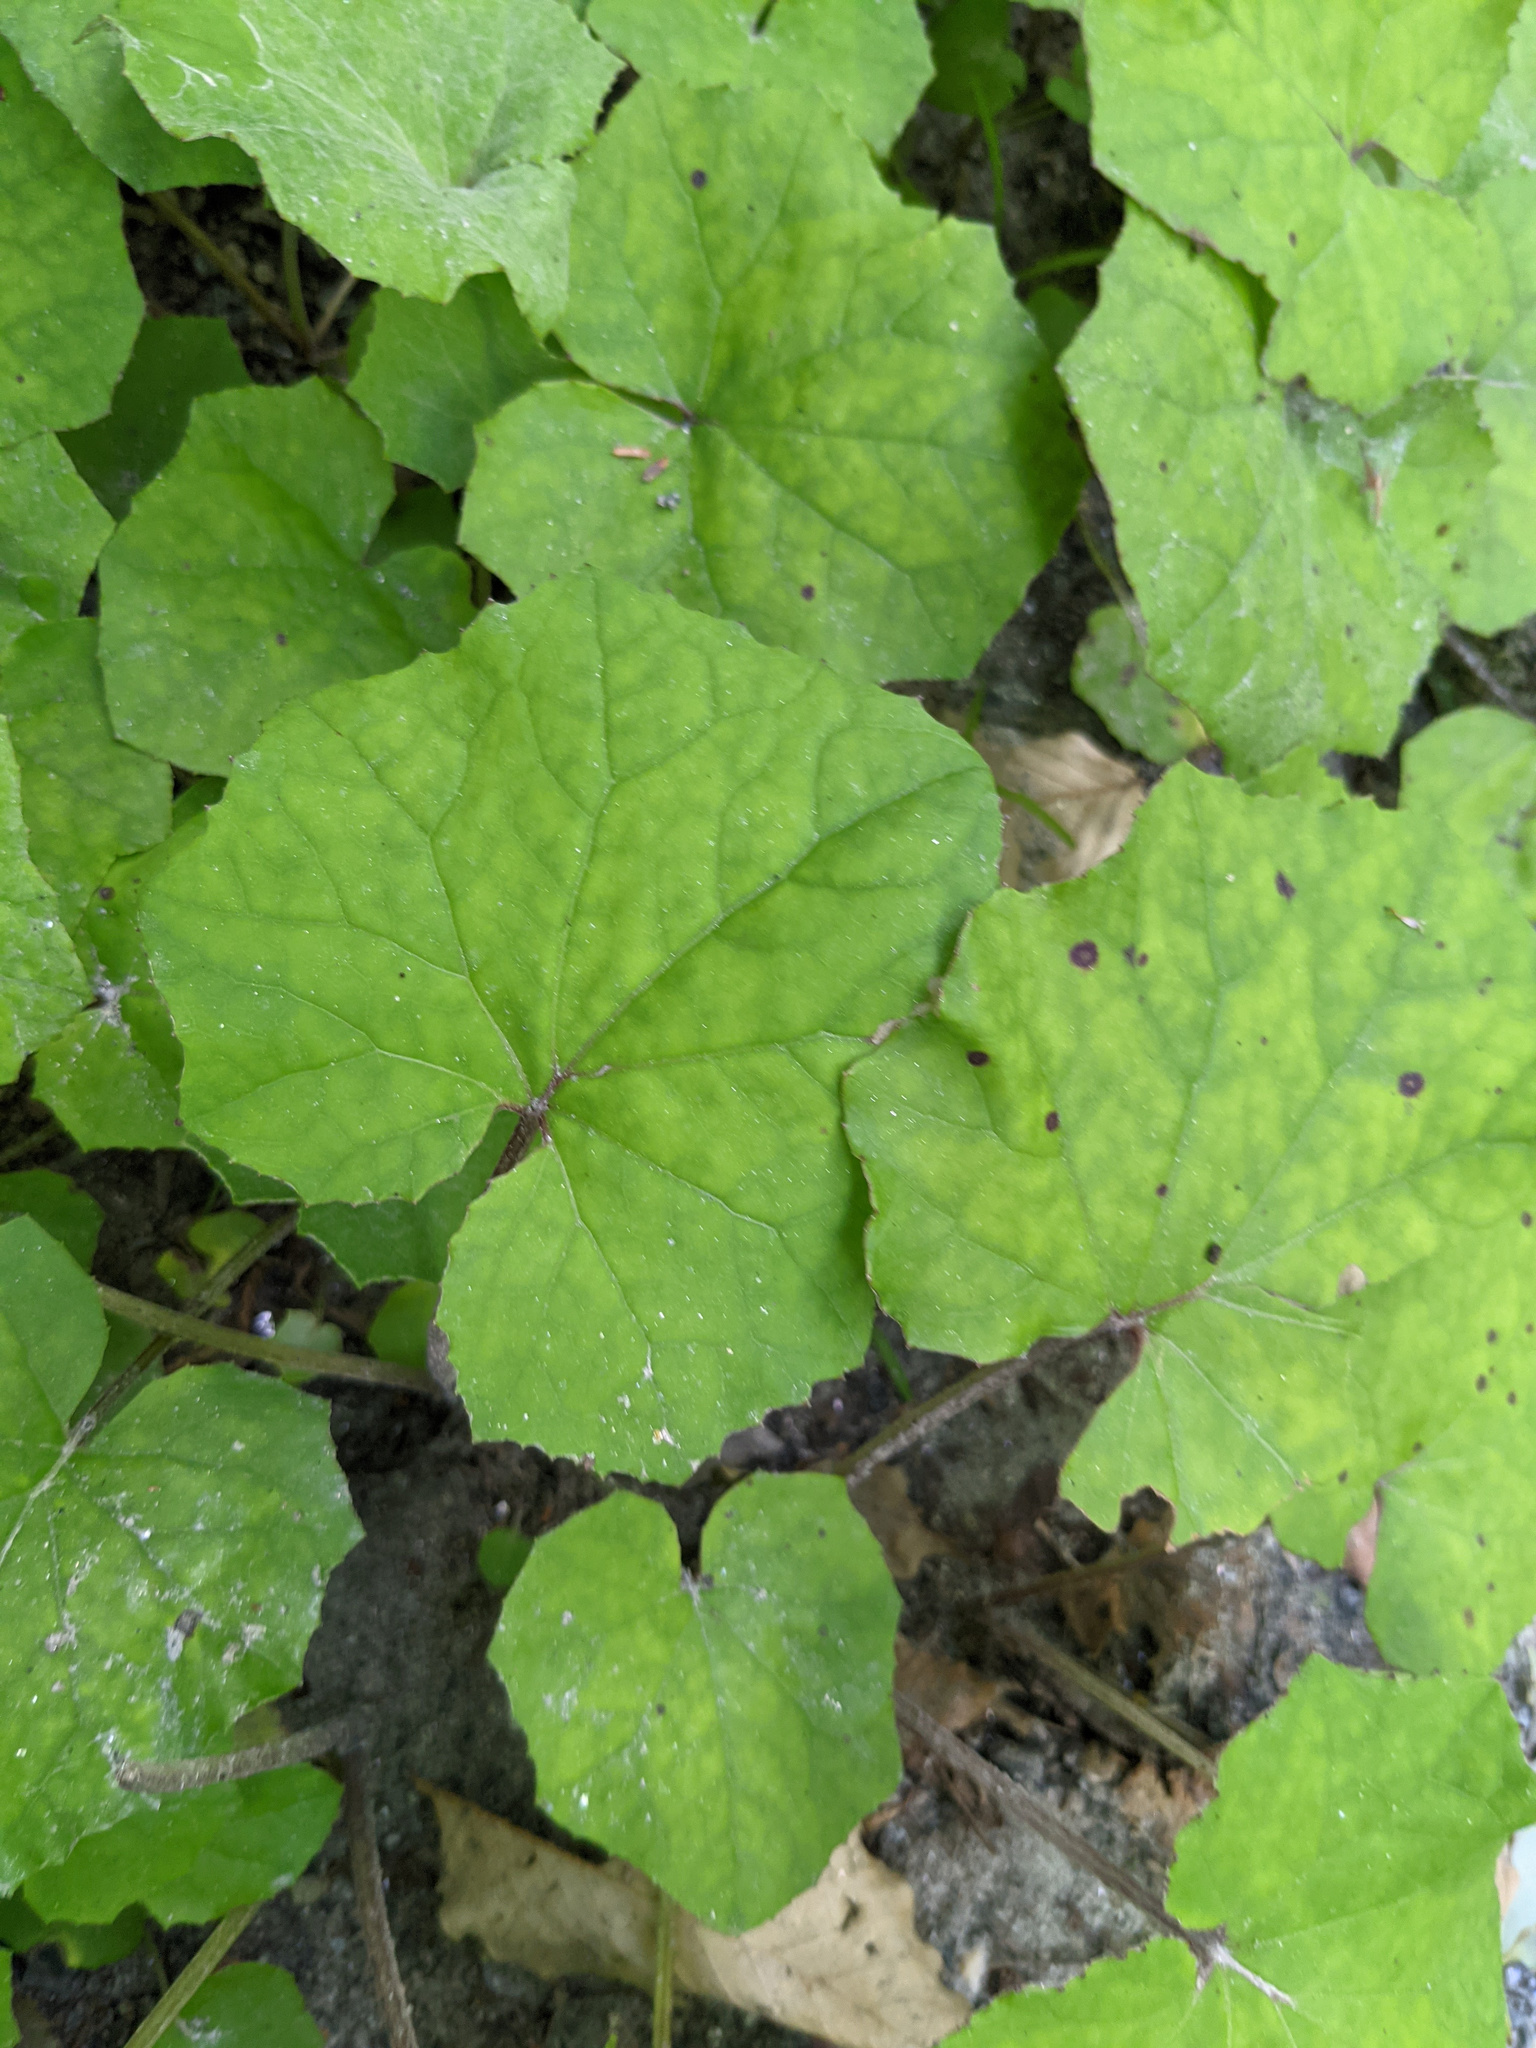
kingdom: Plantae
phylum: Tracheophyta
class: Magnoliopsida
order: Asterales
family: Asteraceae
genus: Tussilago
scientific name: Tussilago farfara
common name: Coltsfoot
